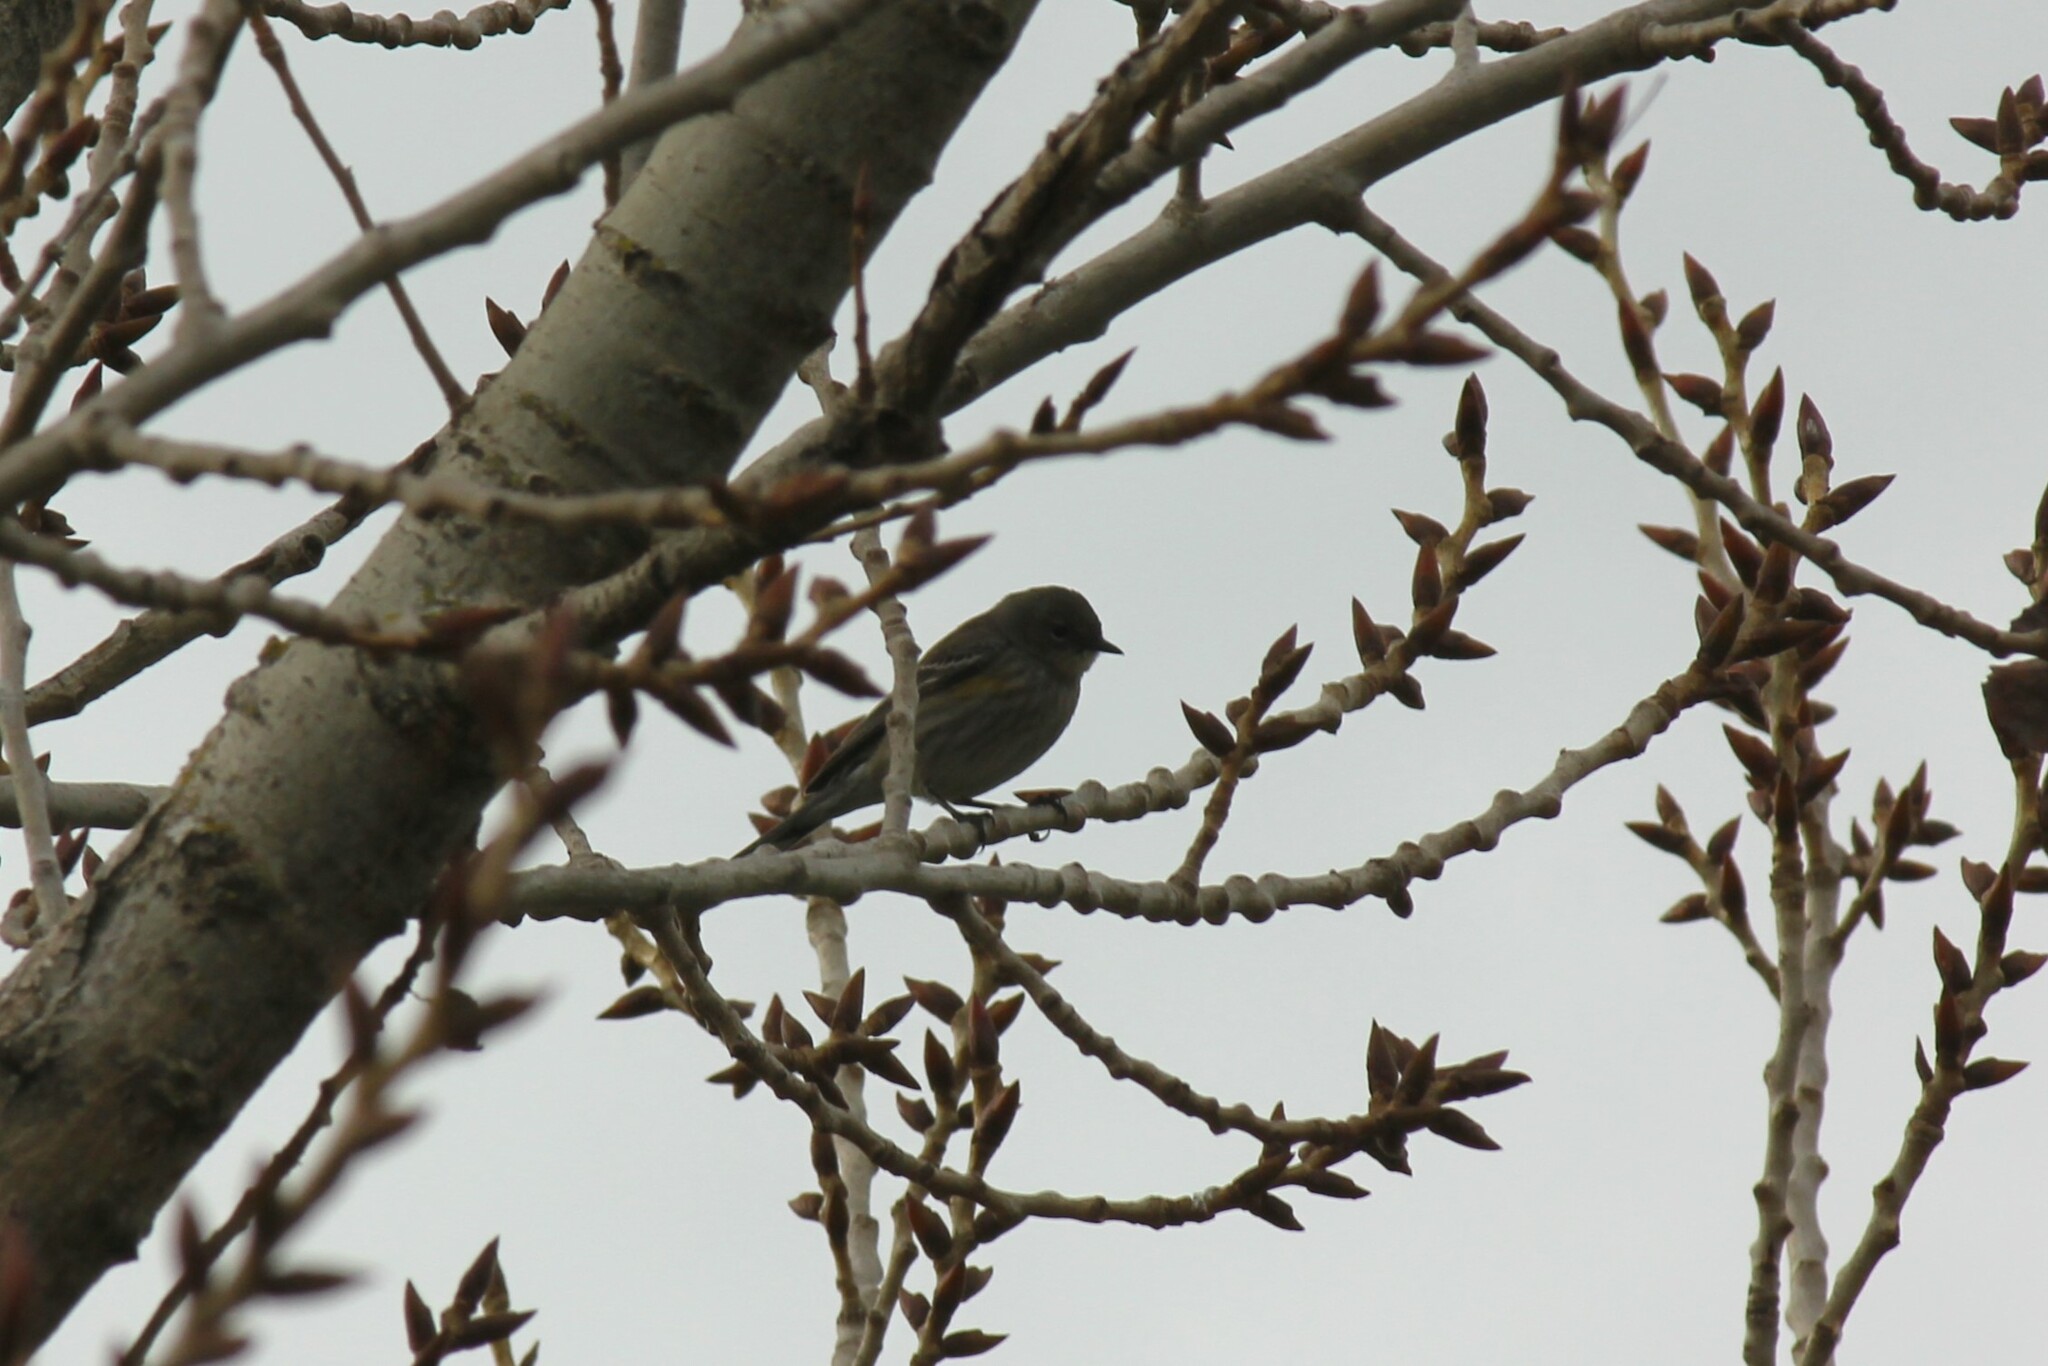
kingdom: Animalia
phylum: Chordata
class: Aves
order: Passeriformes
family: Parulidae
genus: Setophaga
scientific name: Setophaga coronata
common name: Myrtle warbler
